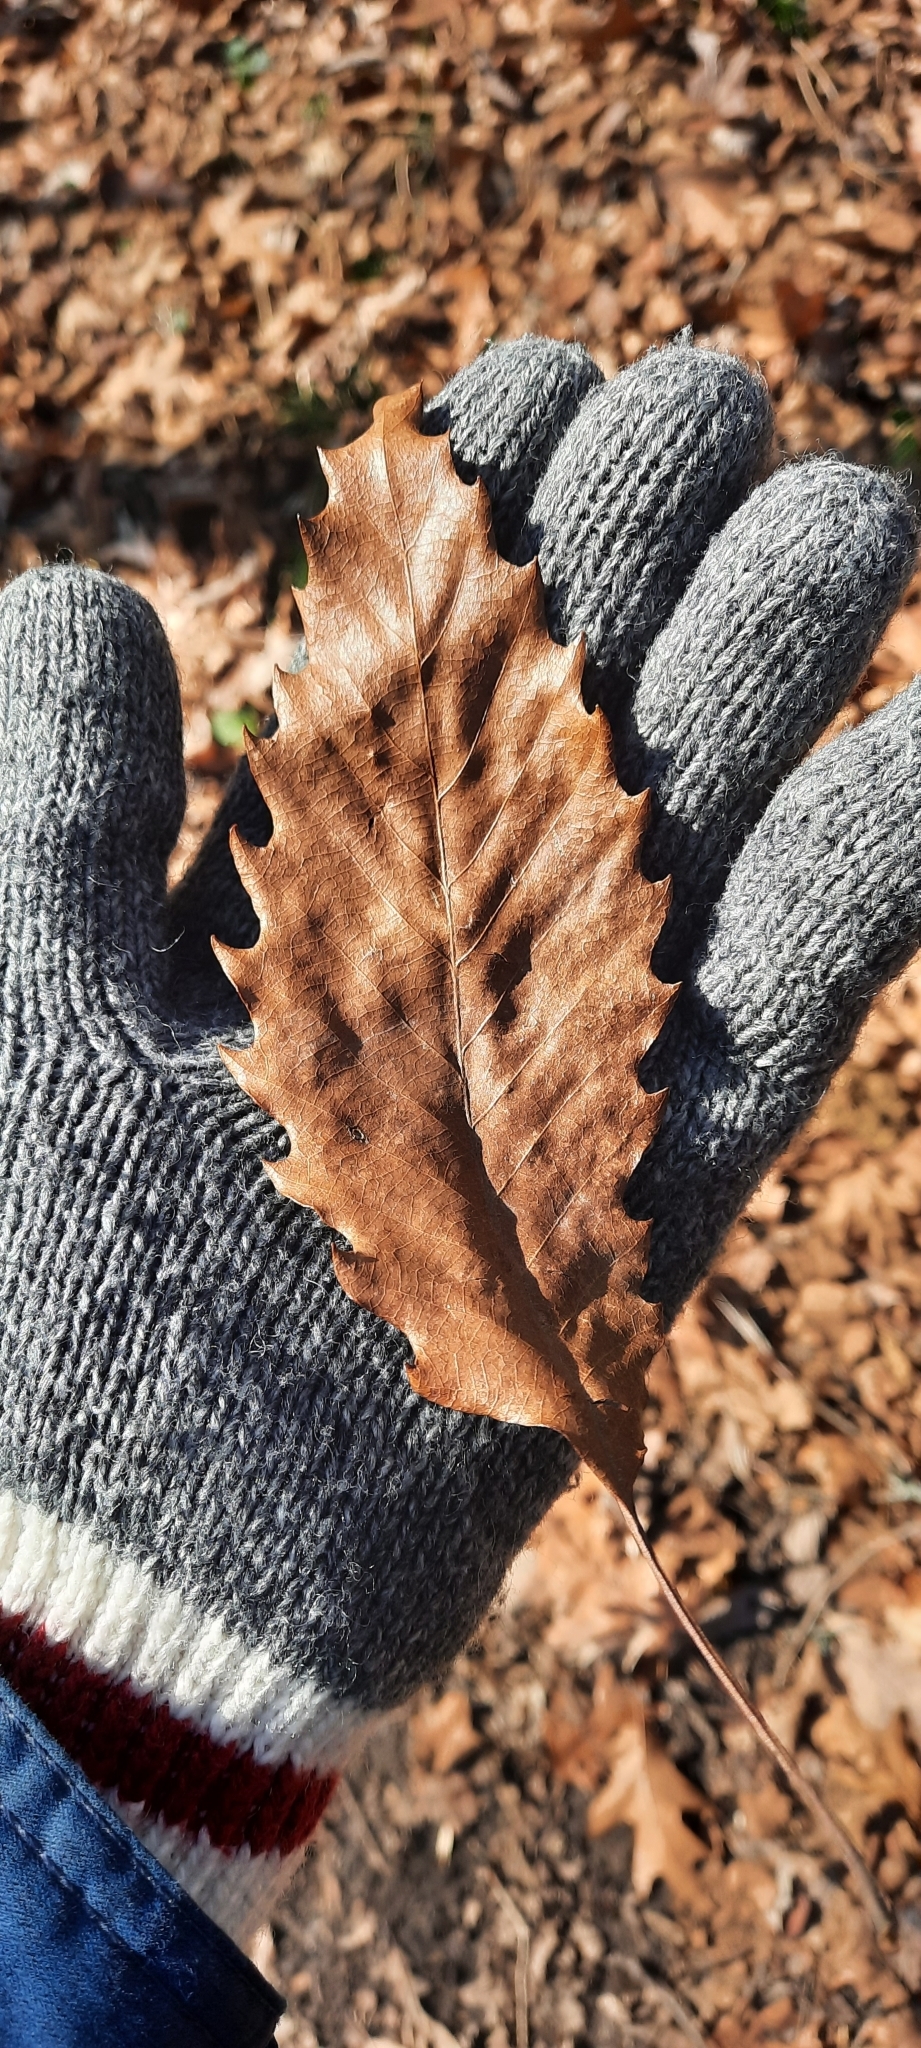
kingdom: Plantae
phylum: Tracheophyta
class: Magnoliopsida
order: Fagales
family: Fagaceae
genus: Castanea
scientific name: Castanea dentata
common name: American chestnut
